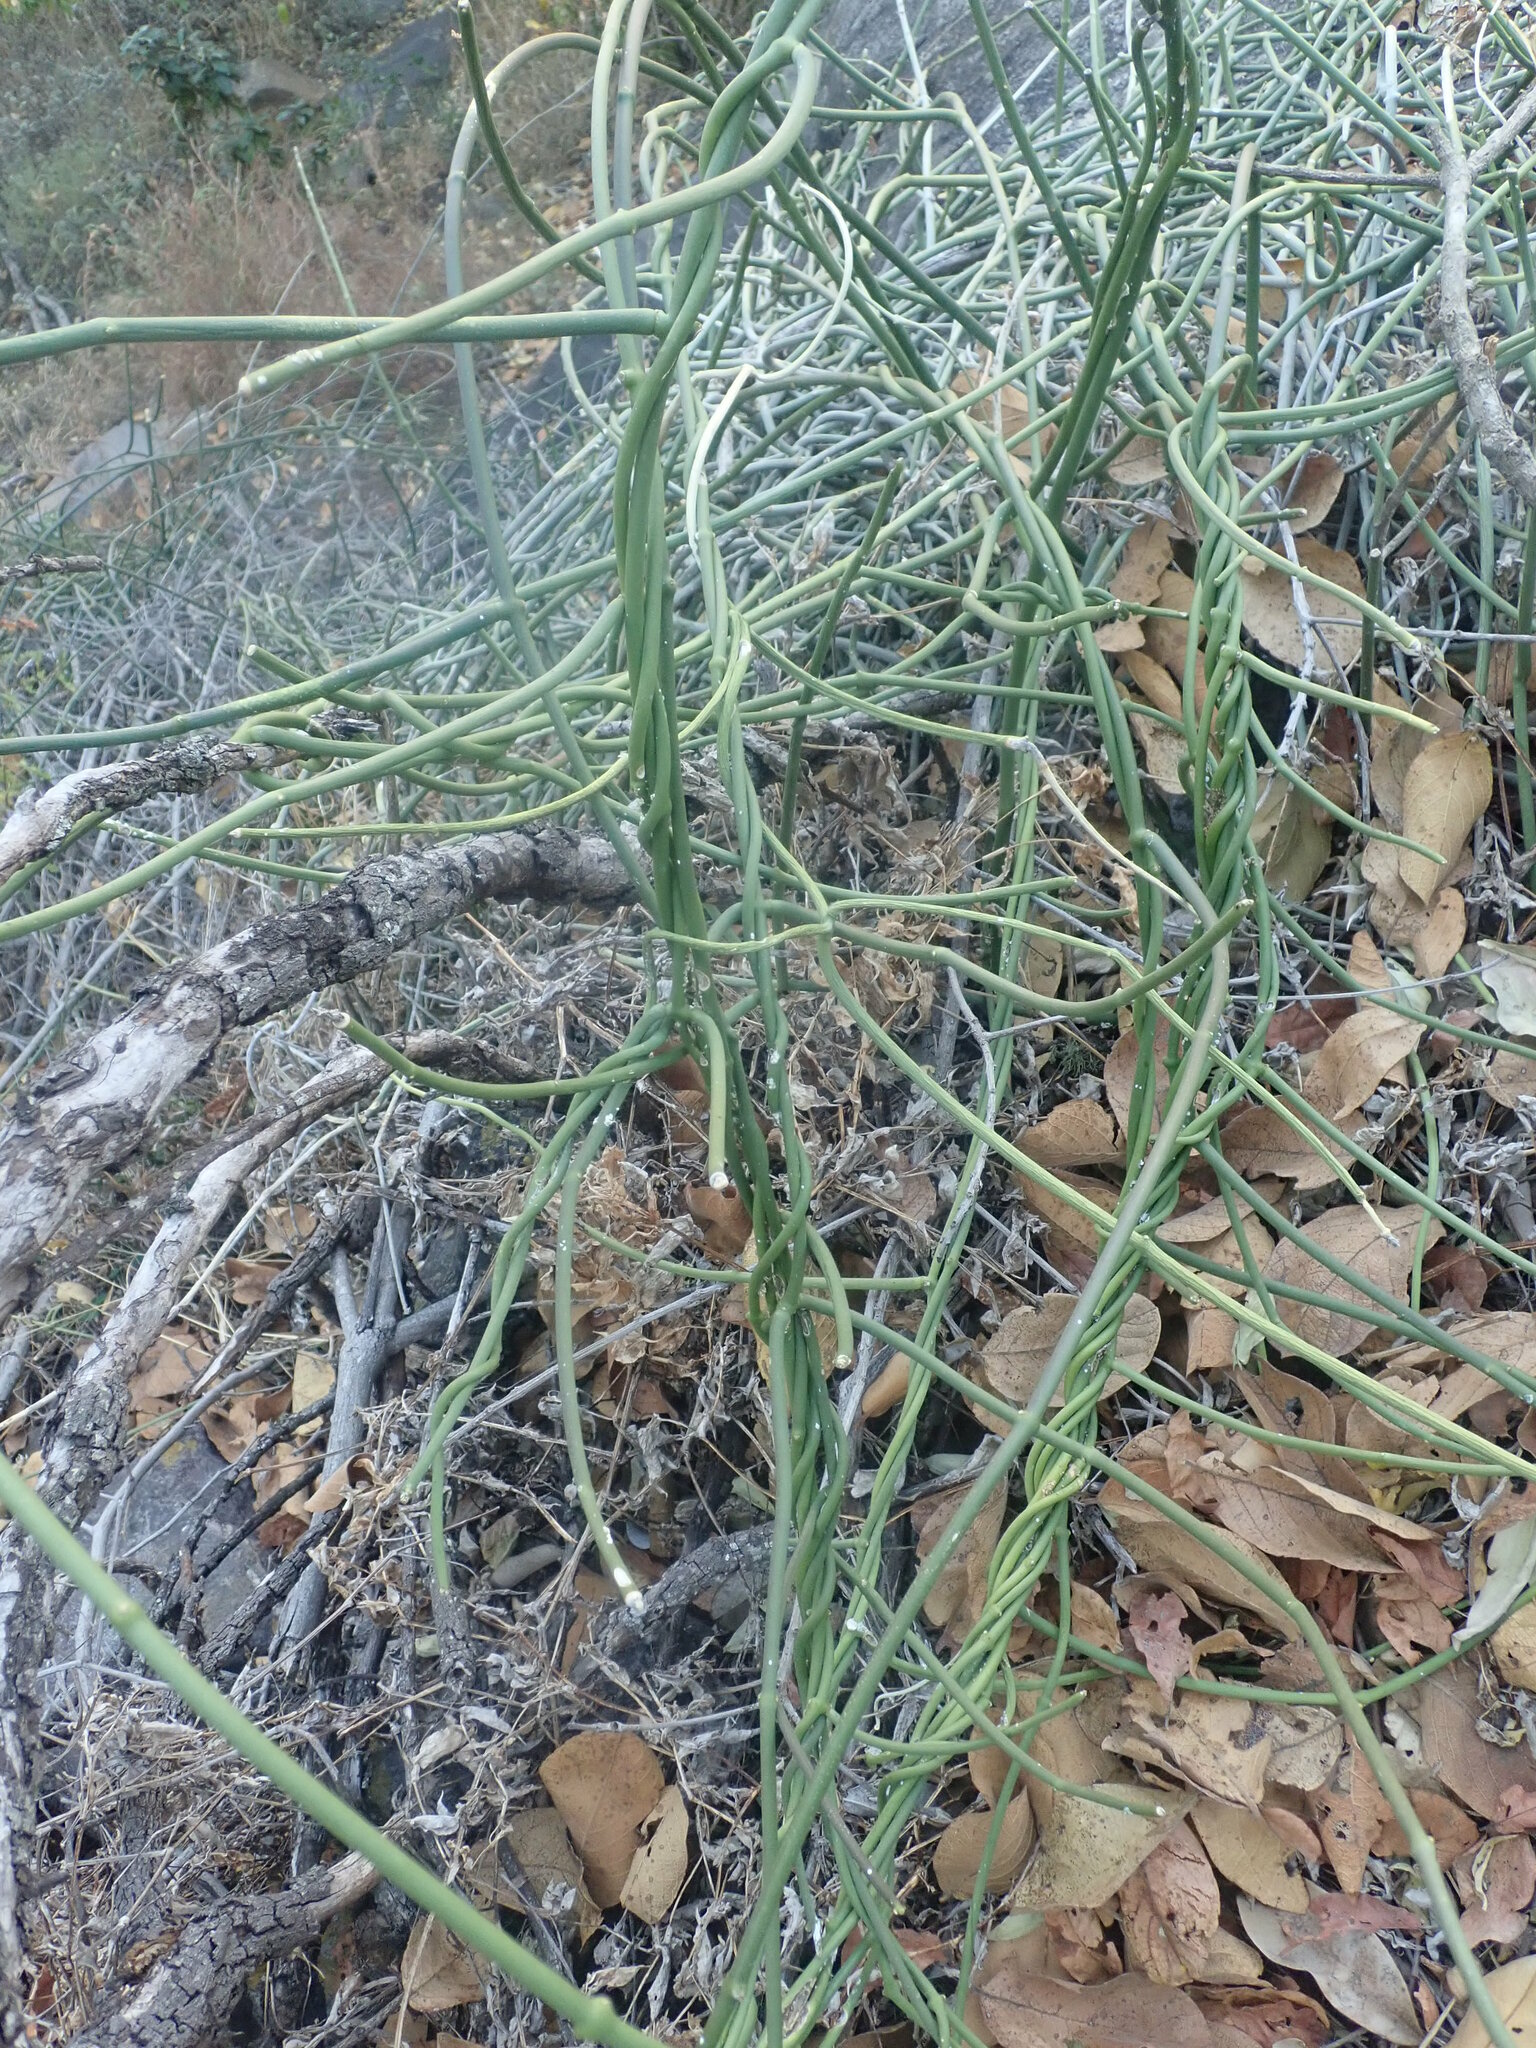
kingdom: Plantae
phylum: Tracheophyta
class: Magnoliopsida
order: Gentianales
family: Apocynaceae
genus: Cynanchum
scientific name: Cynanchum viminale
